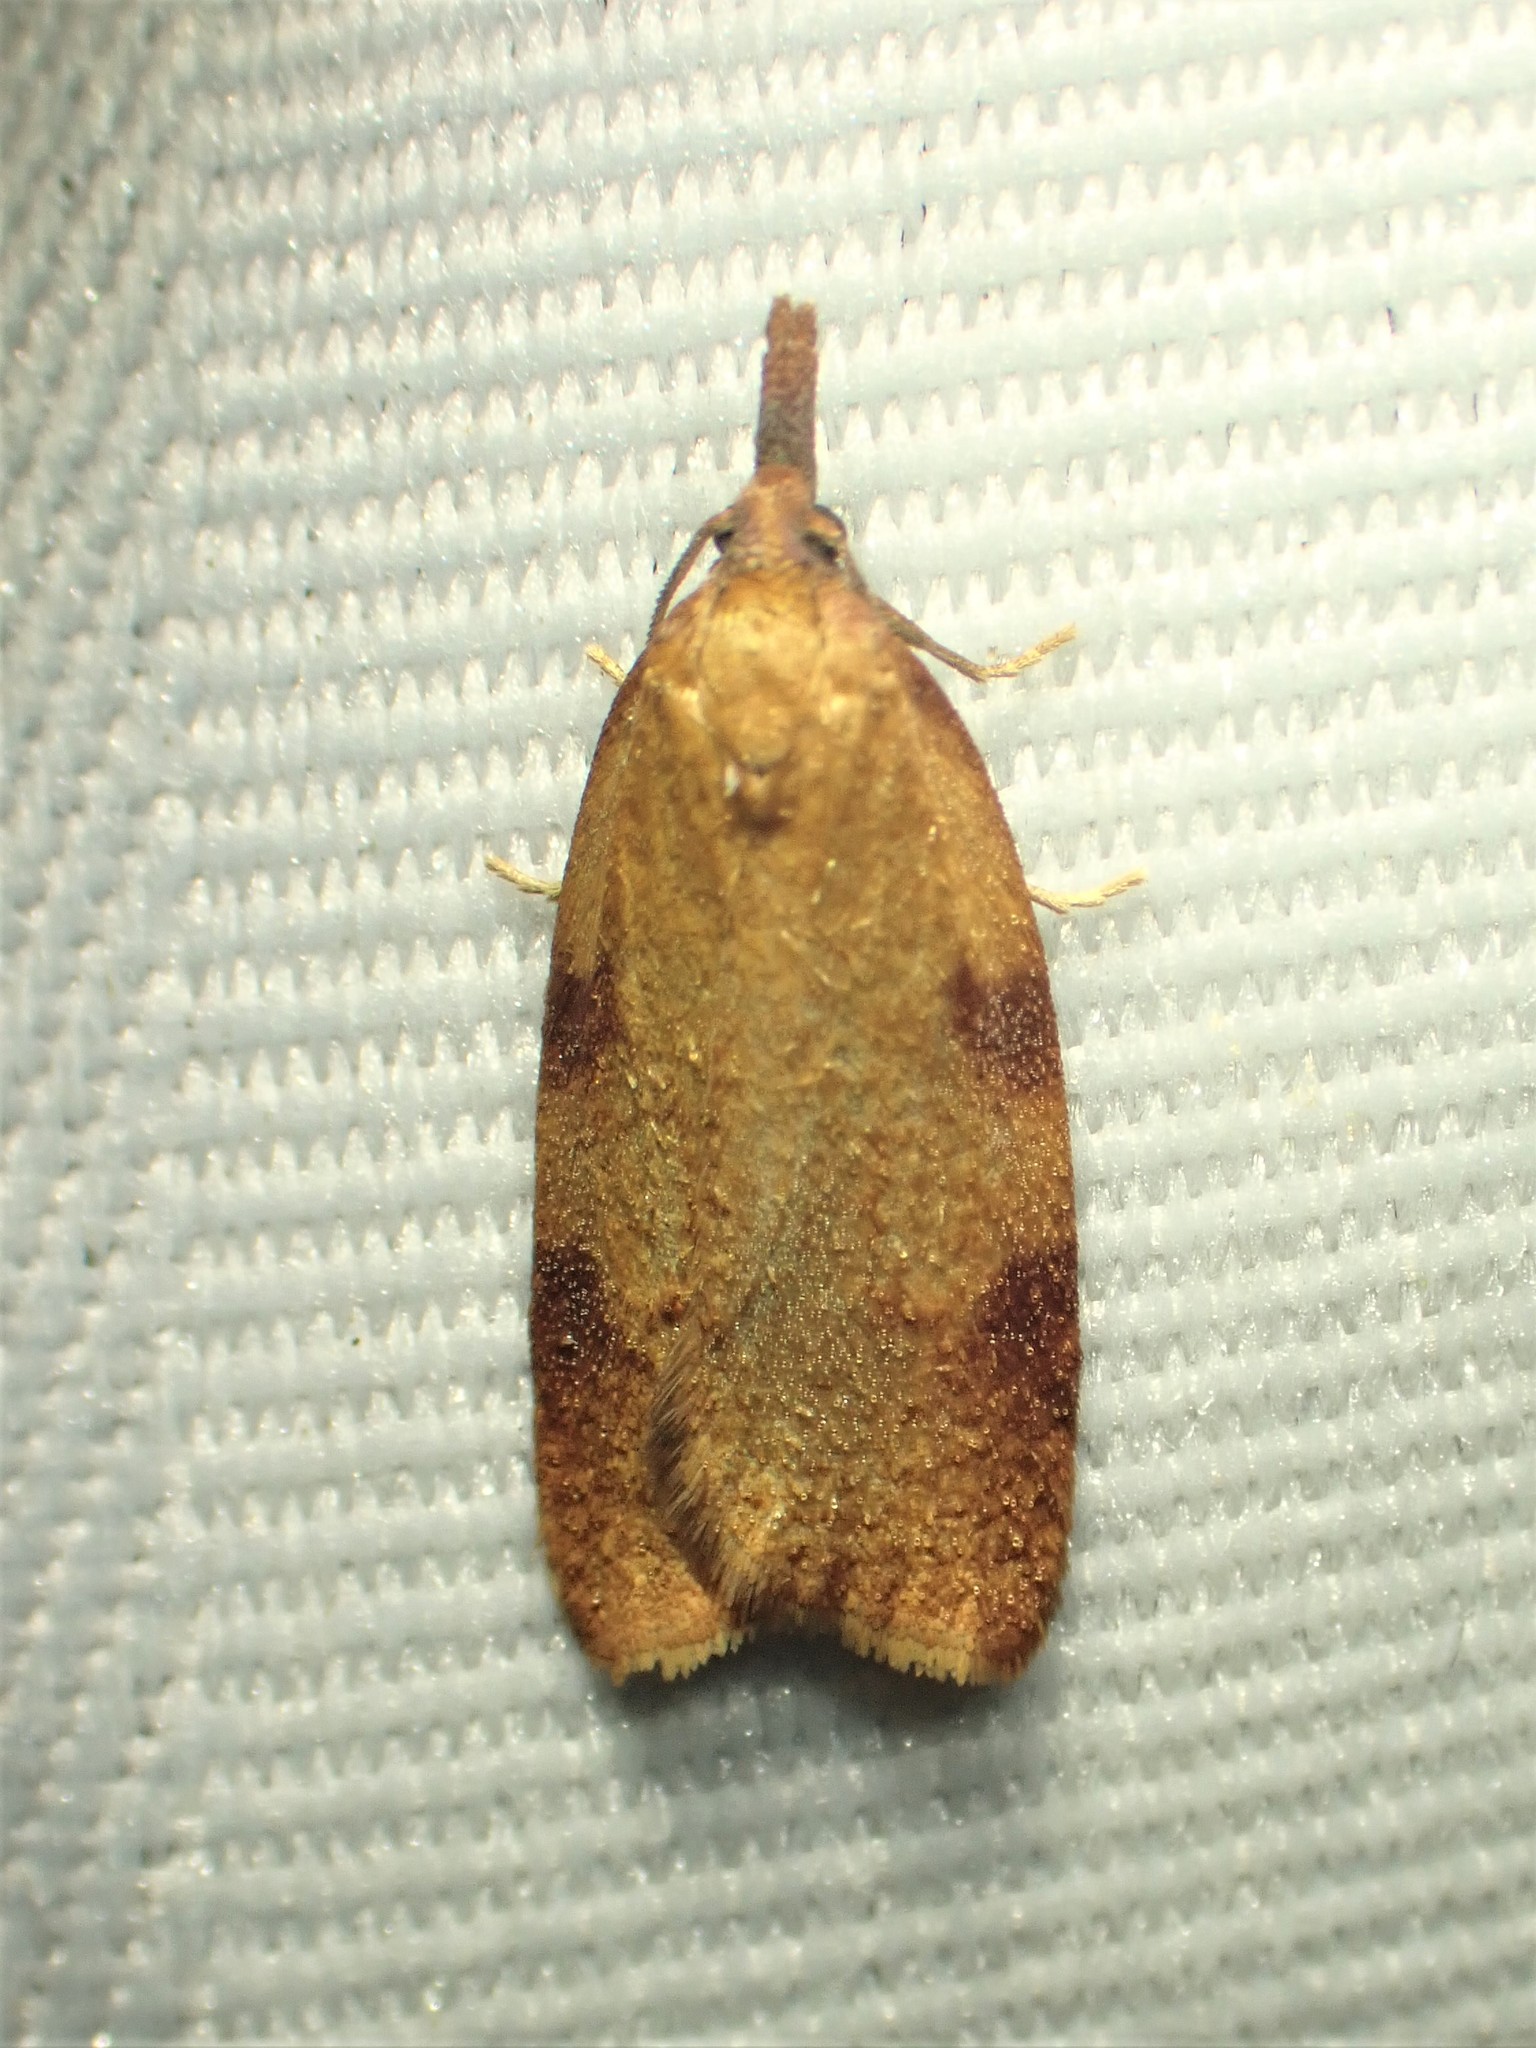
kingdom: Animalia
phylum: Arthropoda
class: Insecta
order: Lepidoptera
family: Tortricidae
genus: Sparganothis
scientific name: Sparganothis boweri
